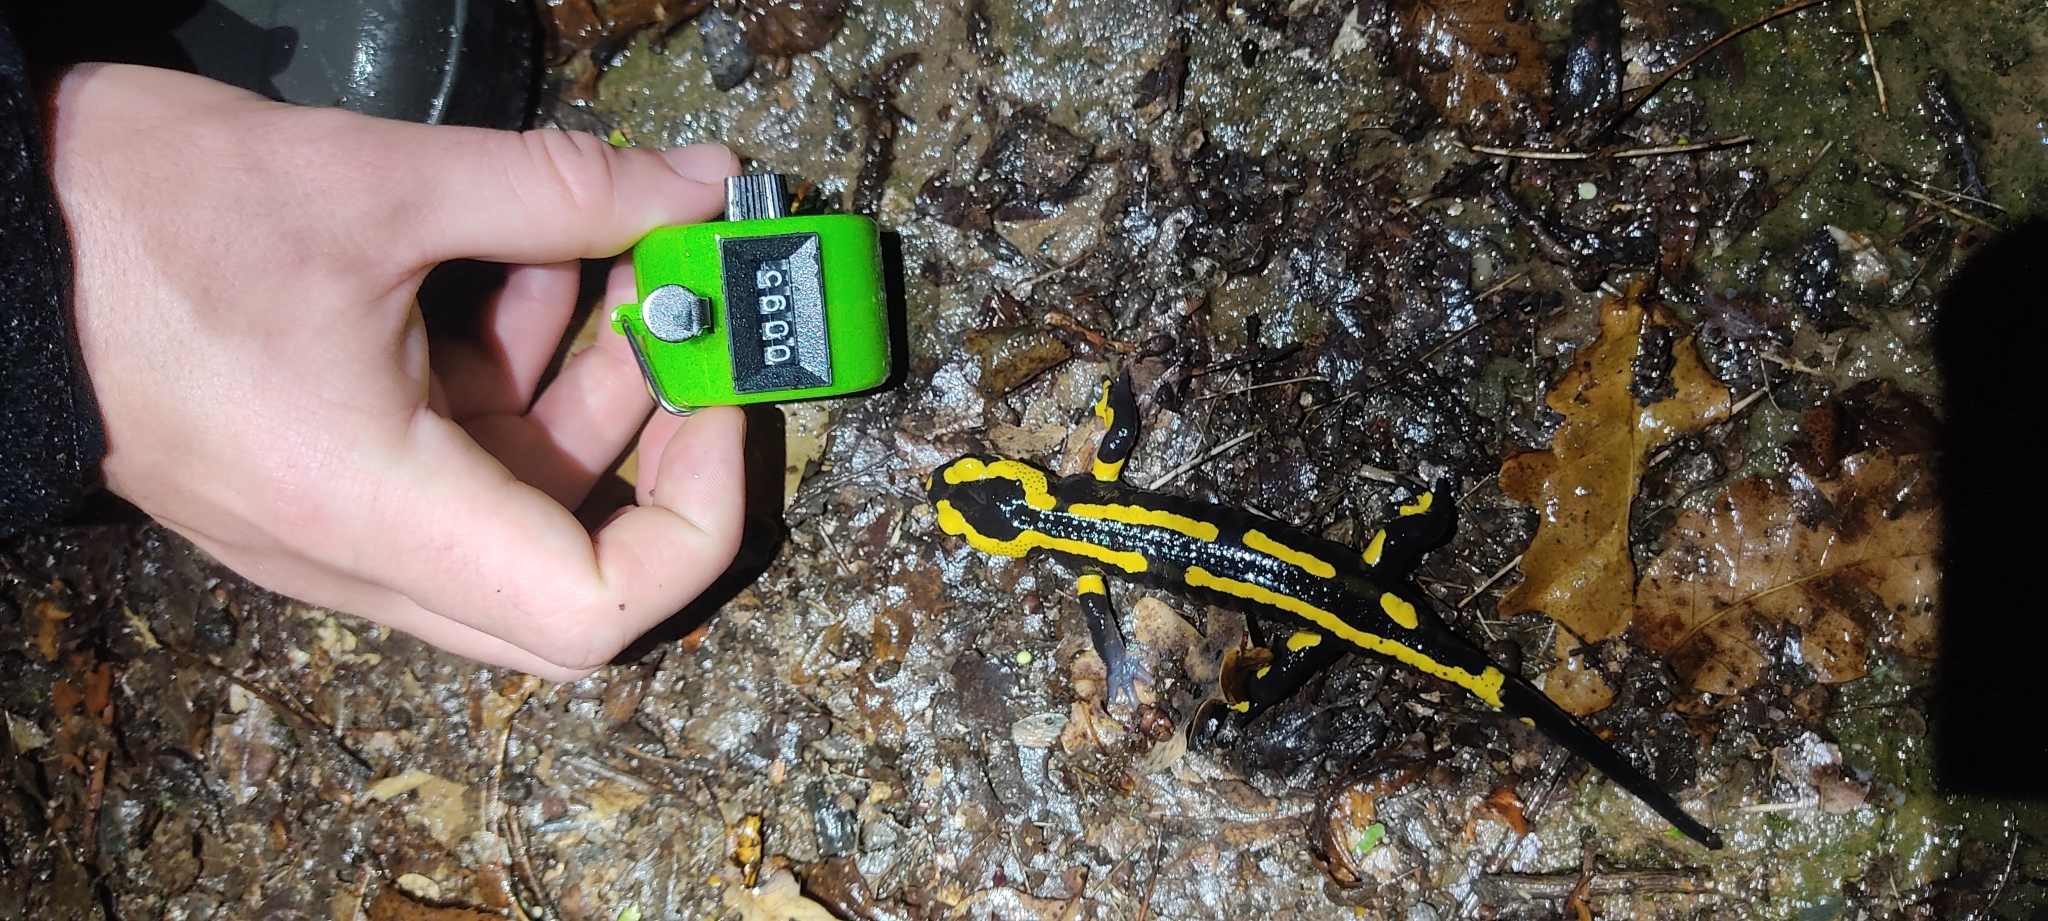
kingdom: Animalia
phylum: Chordata
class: Amphibia
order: Caudata
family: Salamandridae
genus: Salamandra
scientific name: Salamandra salamandra
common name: Fire salamander
